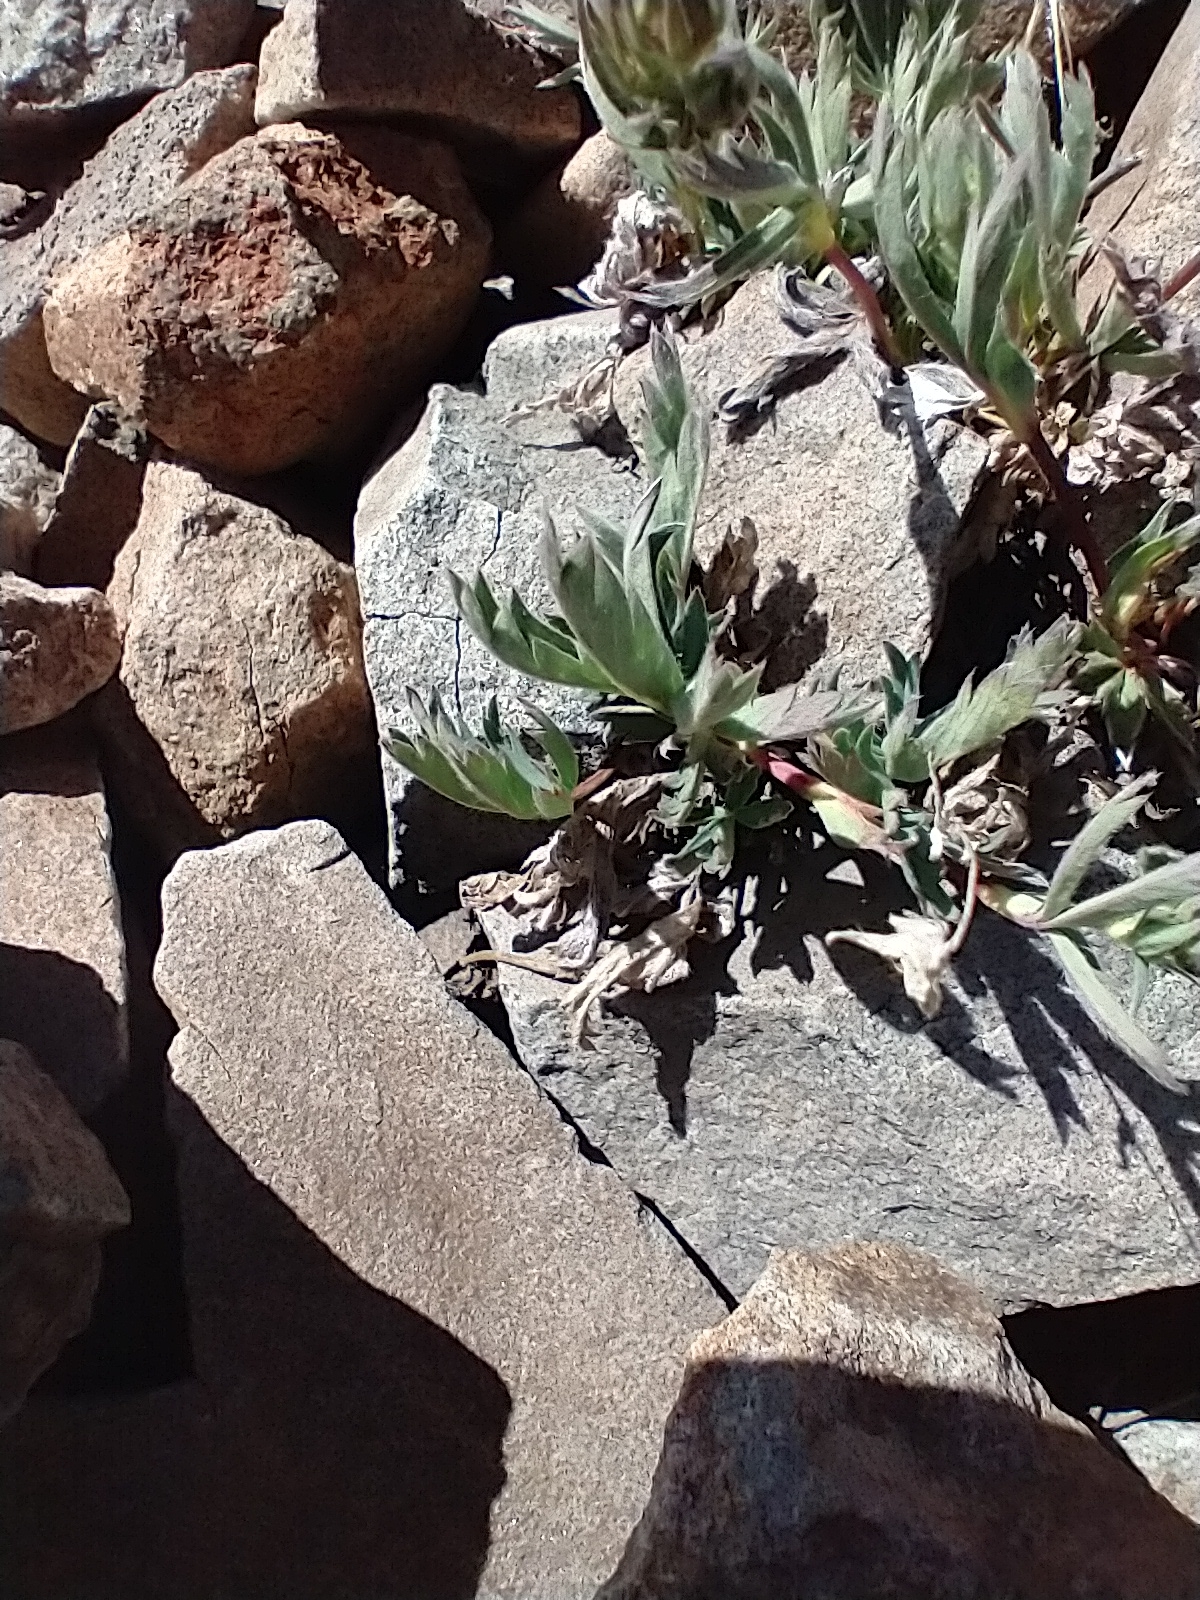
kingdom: Plantae
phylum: Tracheophyta
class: Magnoliopsida
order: Rosales
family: Rosaceae
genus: Potentilla
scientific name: Potentilla glaucophylla
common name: Blue-leaved cinquefoil
